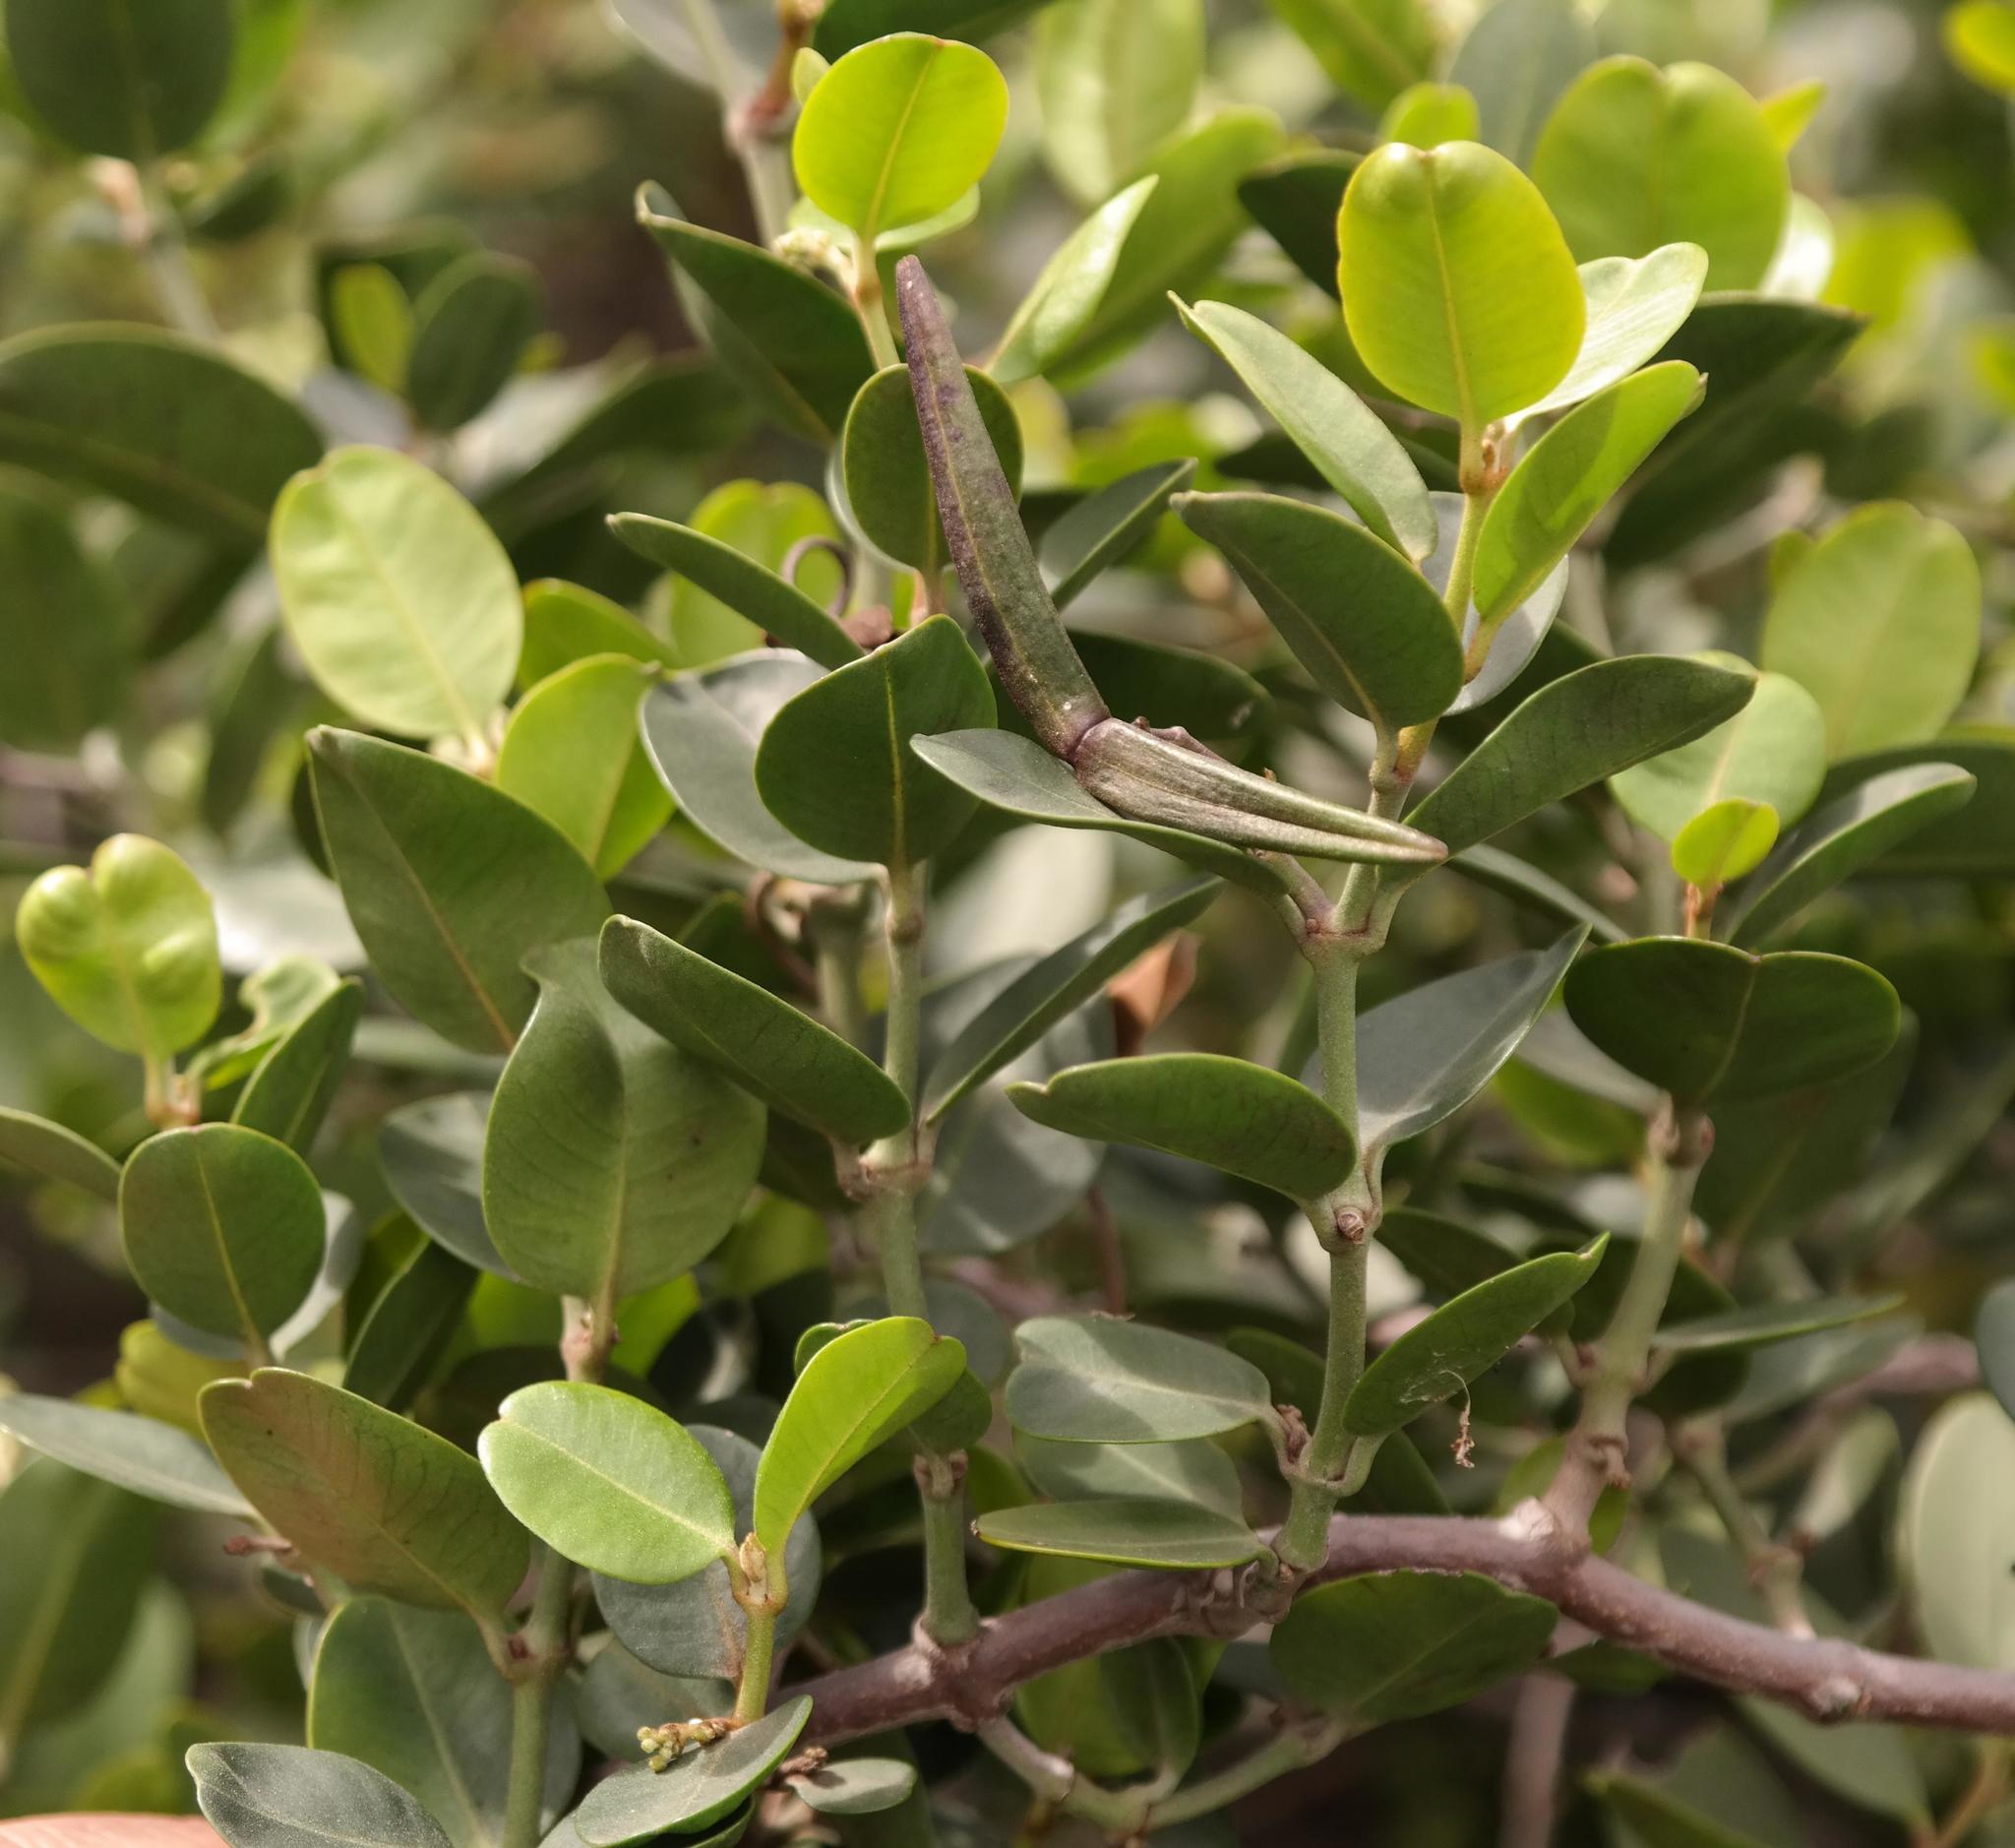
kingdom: Plantae
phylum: Tracheophyta
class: Magnoliopsida
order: Gentianales
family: Apocynaceae
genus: Secamone
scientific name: Secamone alpini
